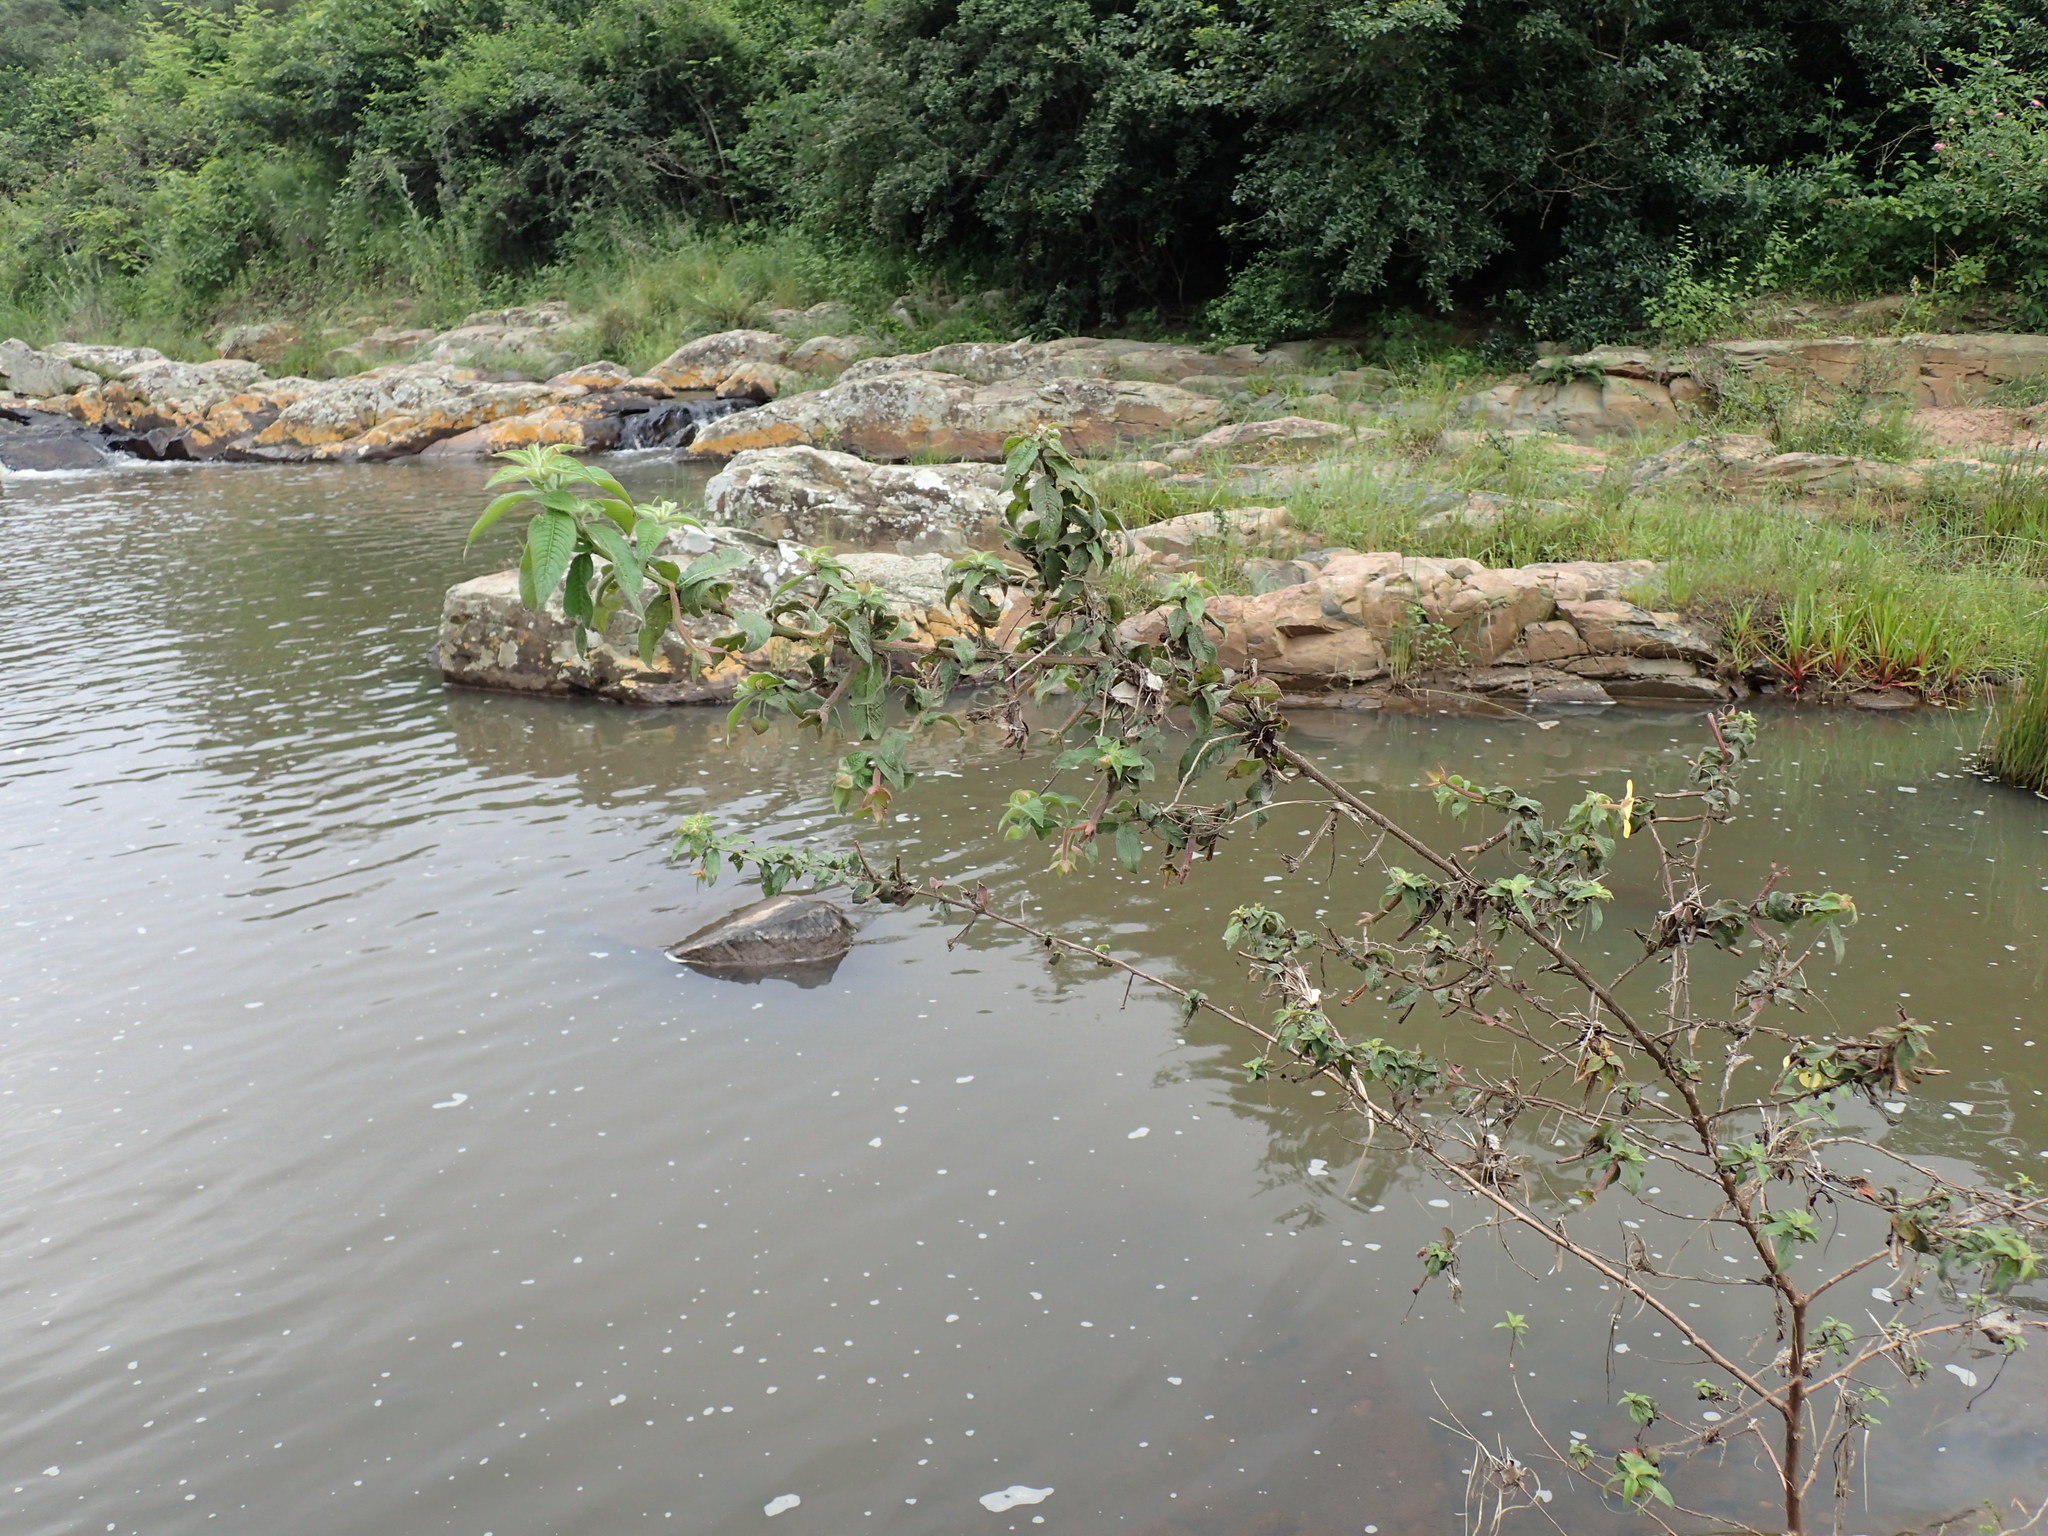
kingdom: Plantae
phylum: Tracheophyta
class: Magnoliopsida
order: Myrtales
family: Onagraceae
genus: Ludwigia
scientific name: Ludwigia octovalvis
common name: Water-primrose
